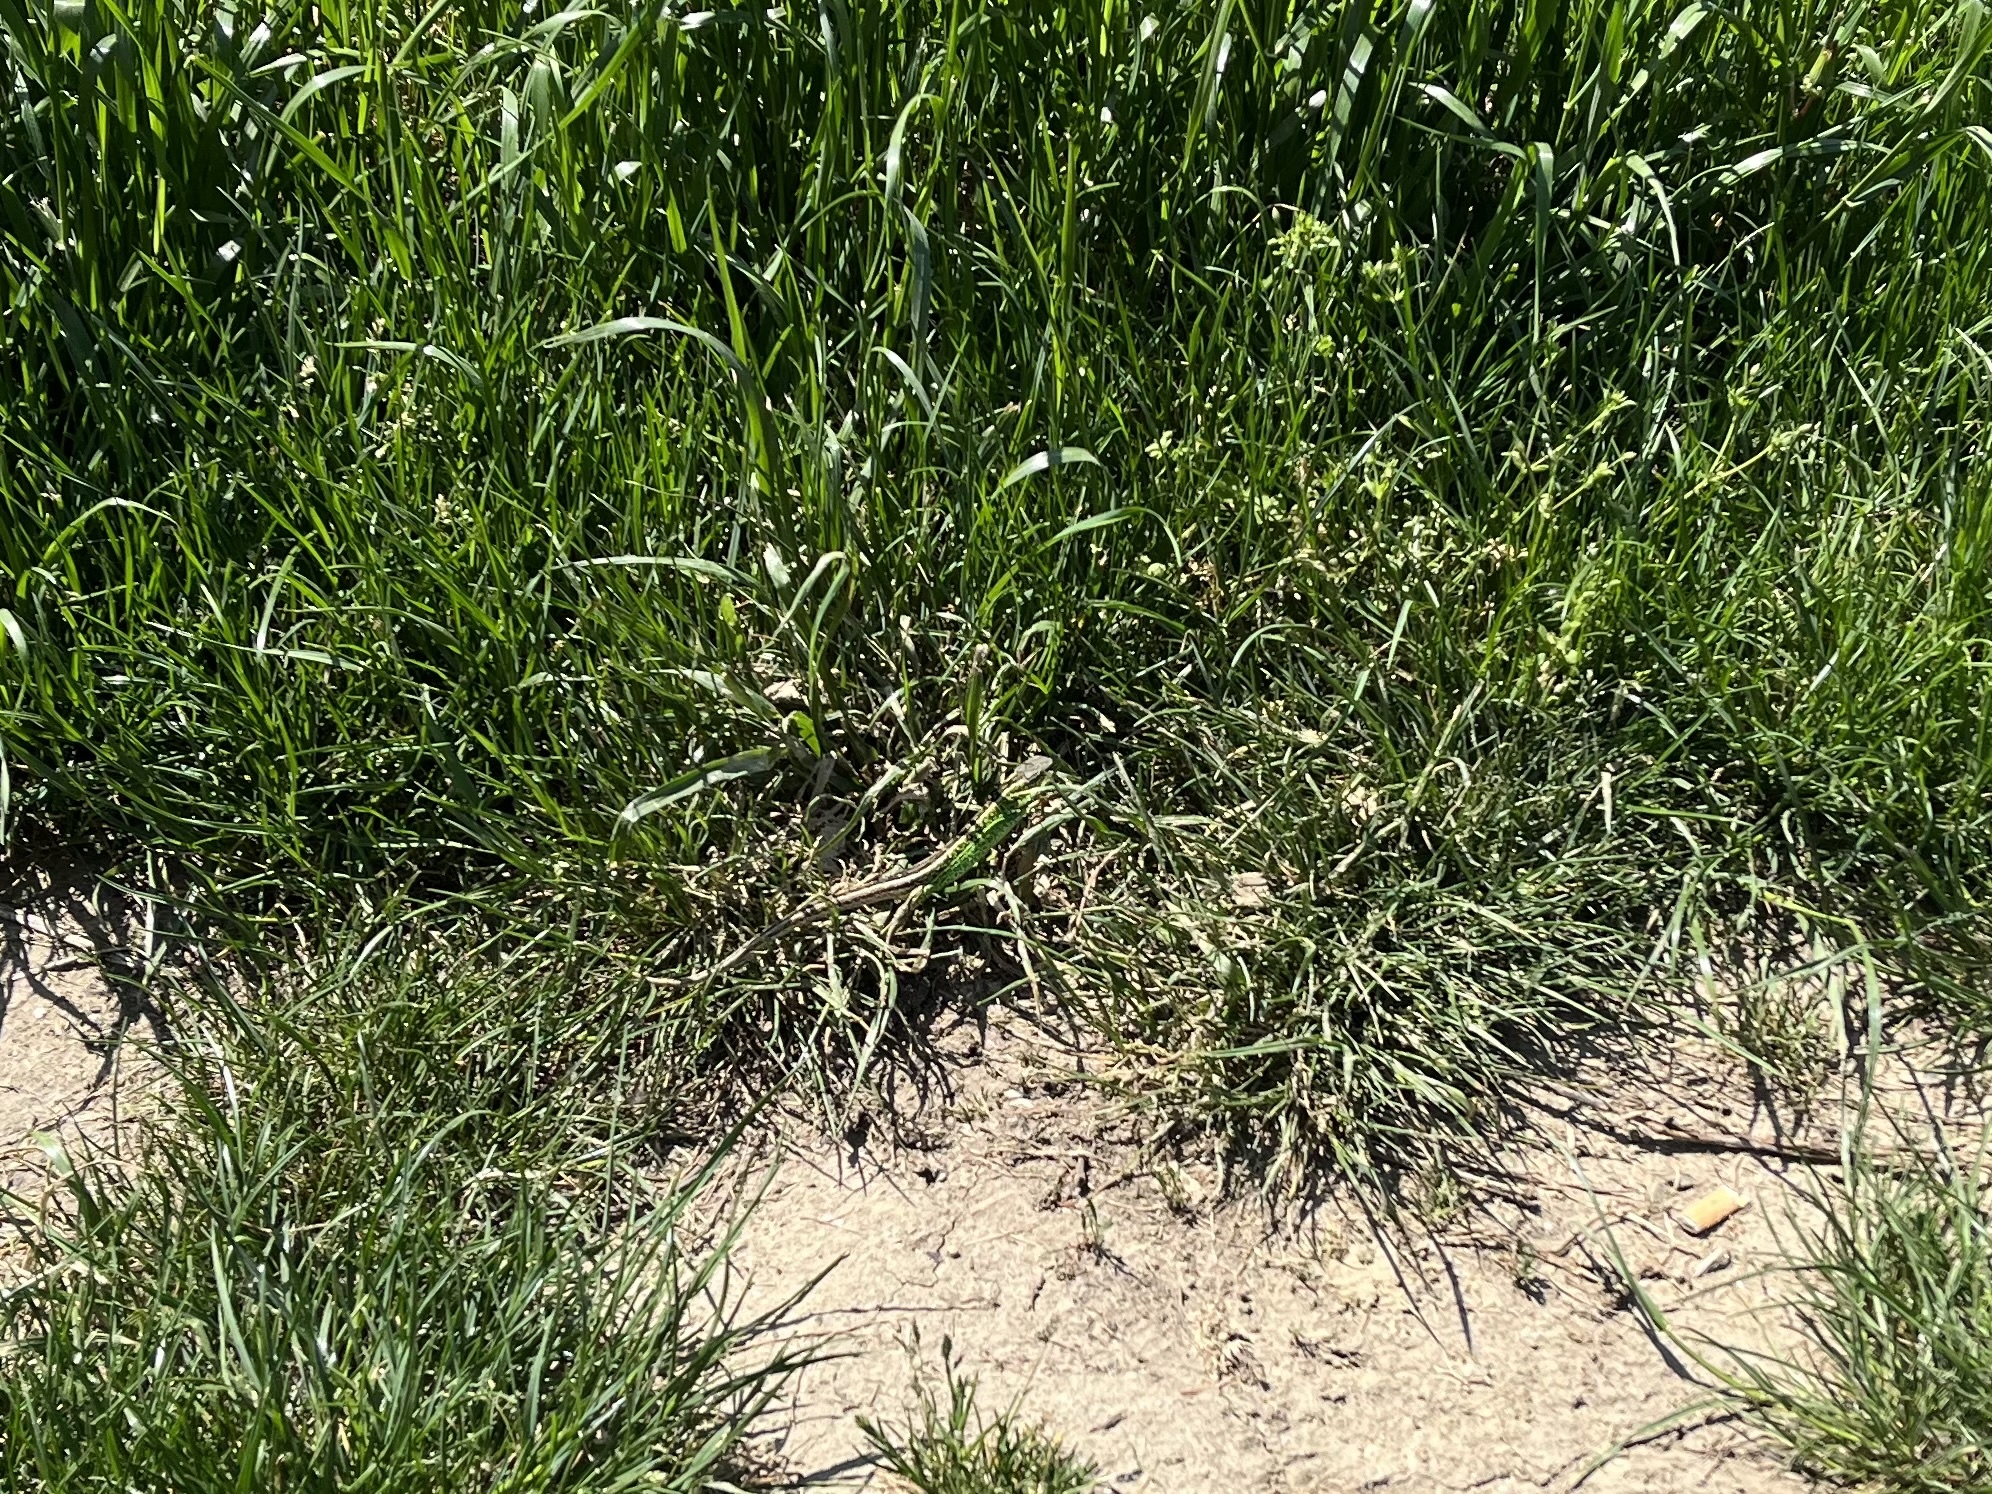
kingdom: Animalia
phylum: Chordata
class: Squamata
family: Lacertidae
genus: Lacerta
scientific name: Lacerta agilis
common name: Sand lizard
